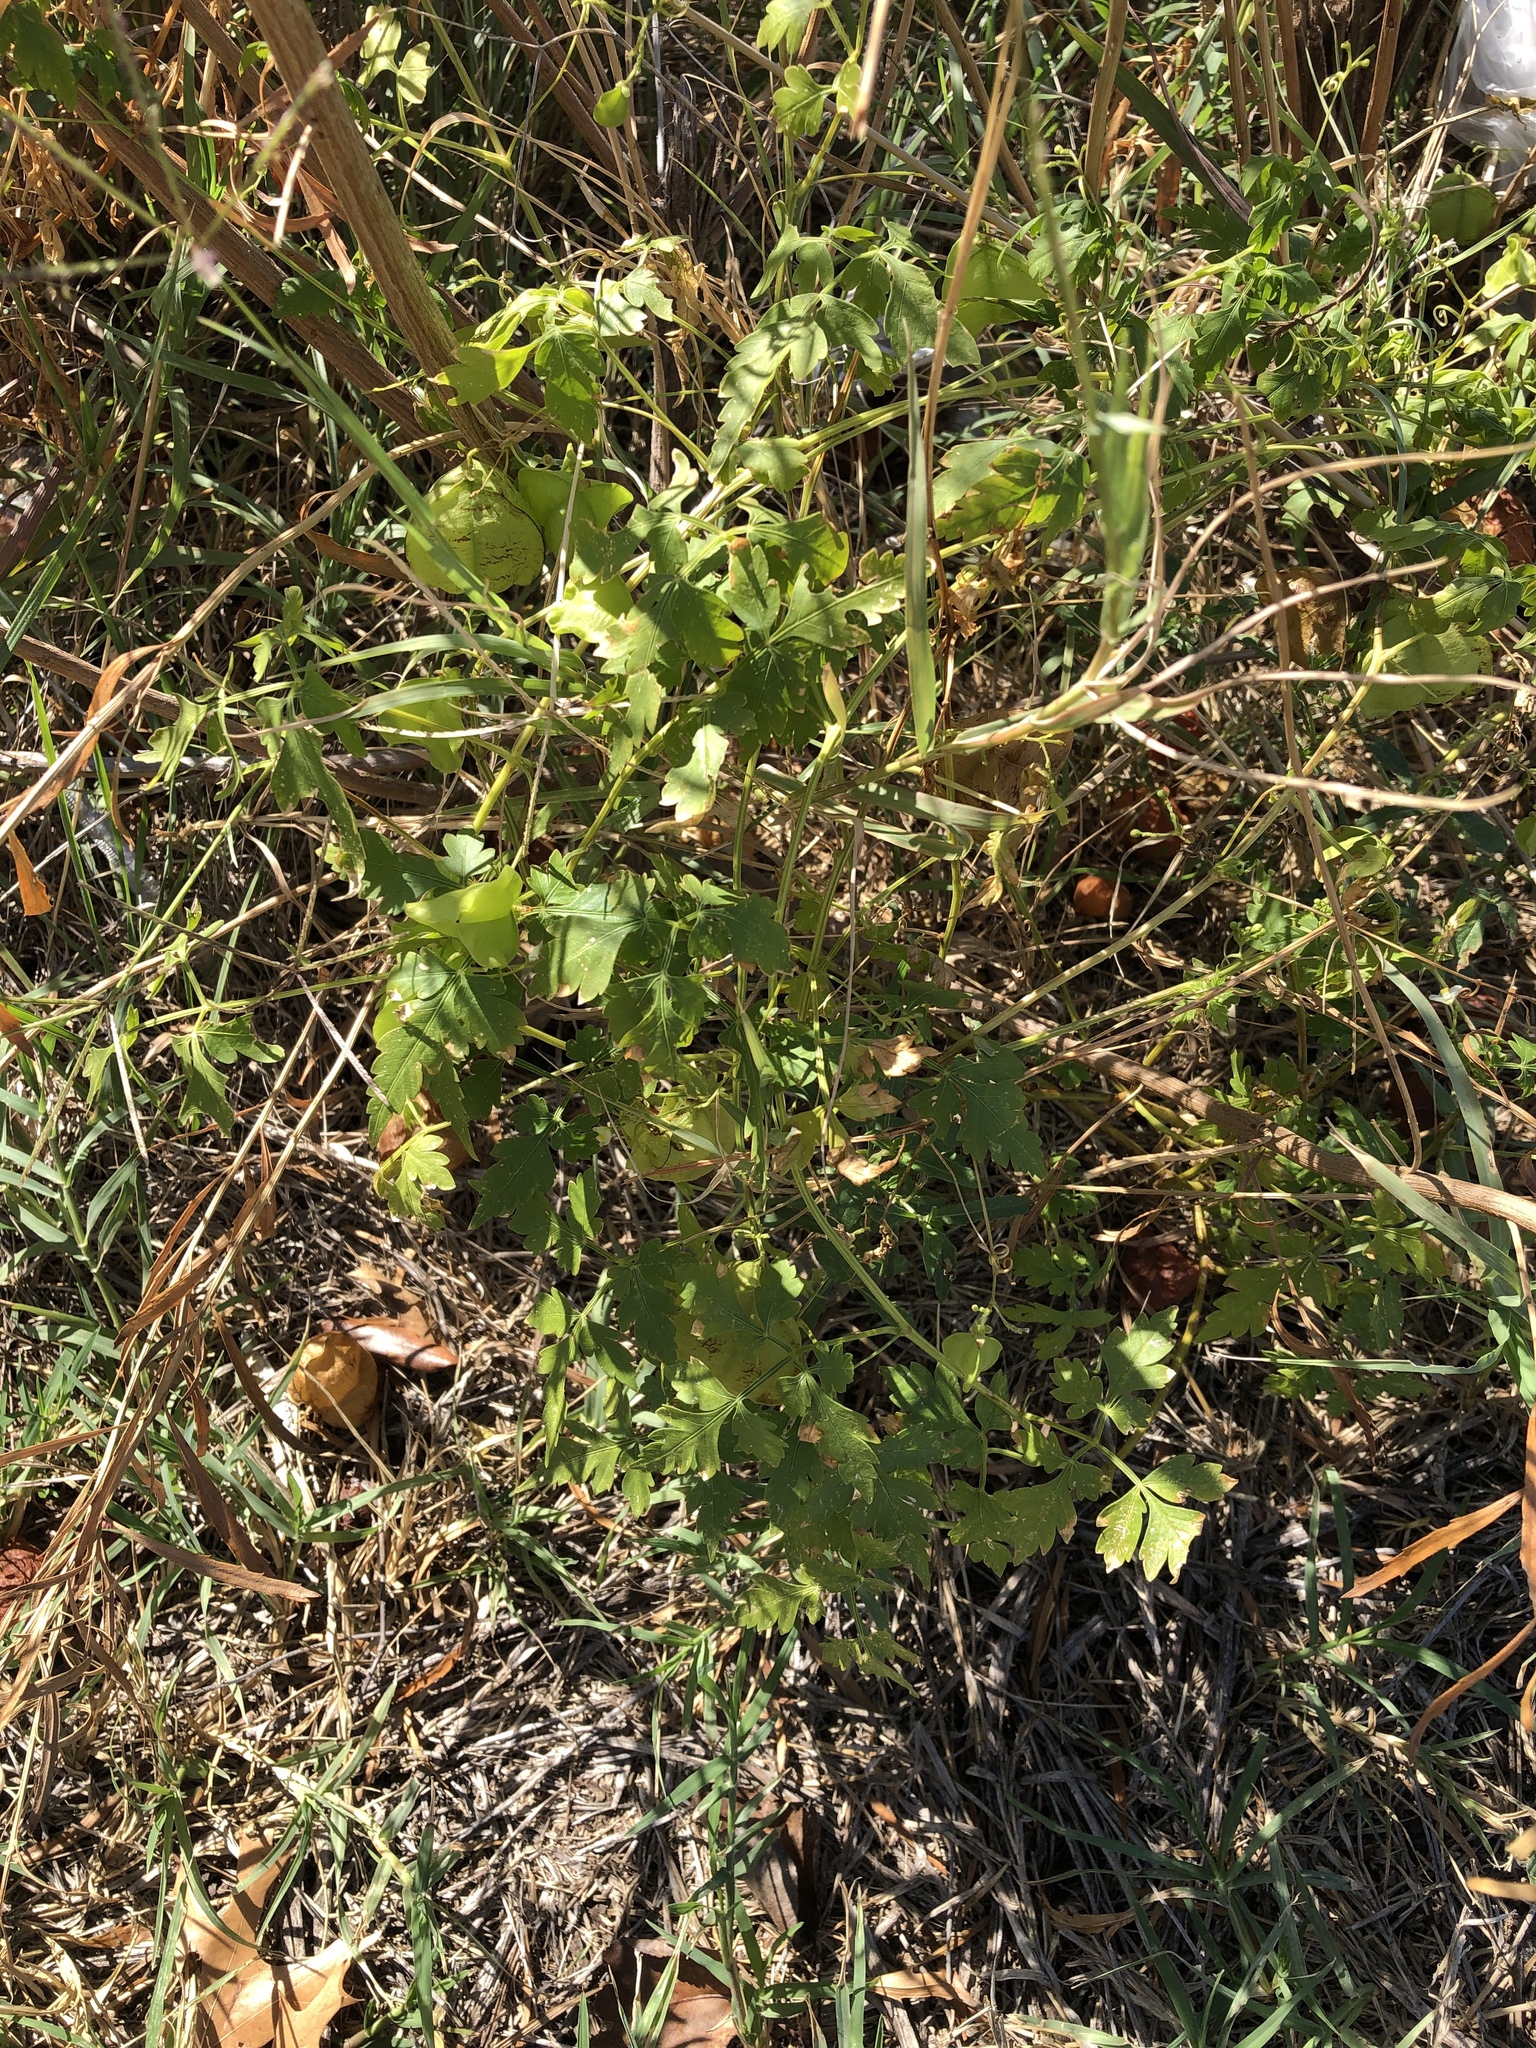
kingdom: Plantae
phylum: Tracheophyta
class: Magnoliopsida
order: Sapindales
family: Sapindaceae
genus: Cardiospermum
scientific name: Cardiospermum halicacabum
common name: Balloon vine
